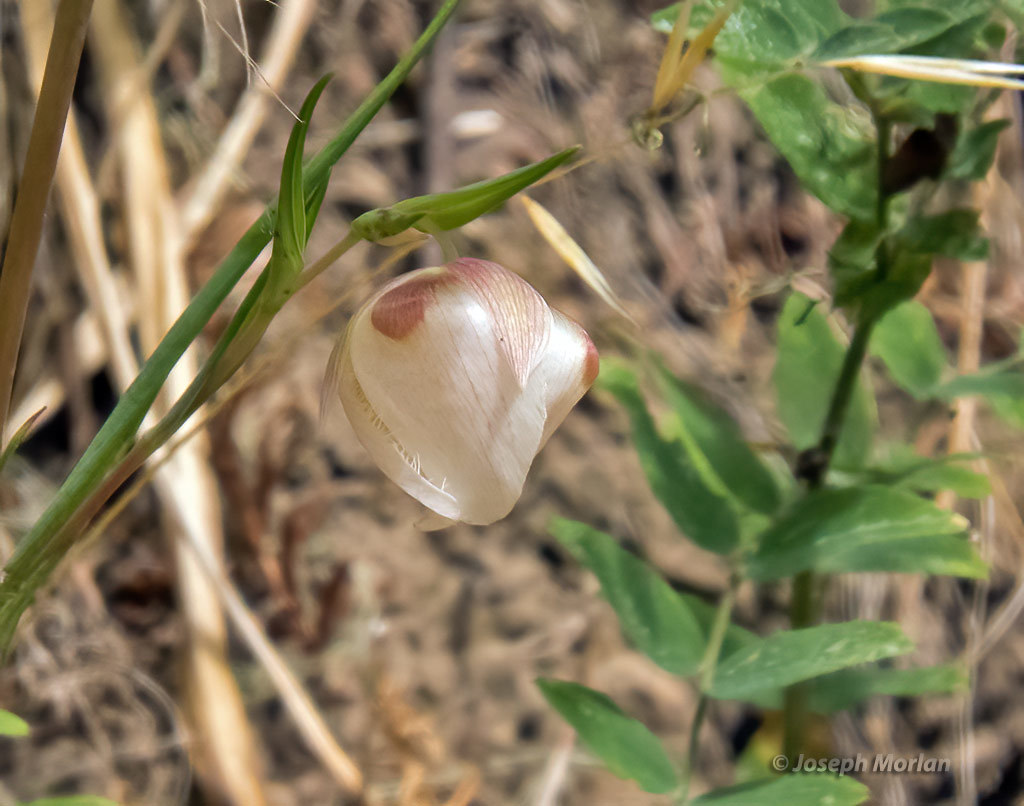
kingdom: Plantae
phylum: Tracheophyta
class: Liliopsida
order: Liliales
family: Liliaceae
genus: Calochortus
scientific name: Calochortus albus
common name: Fairy-lantern
